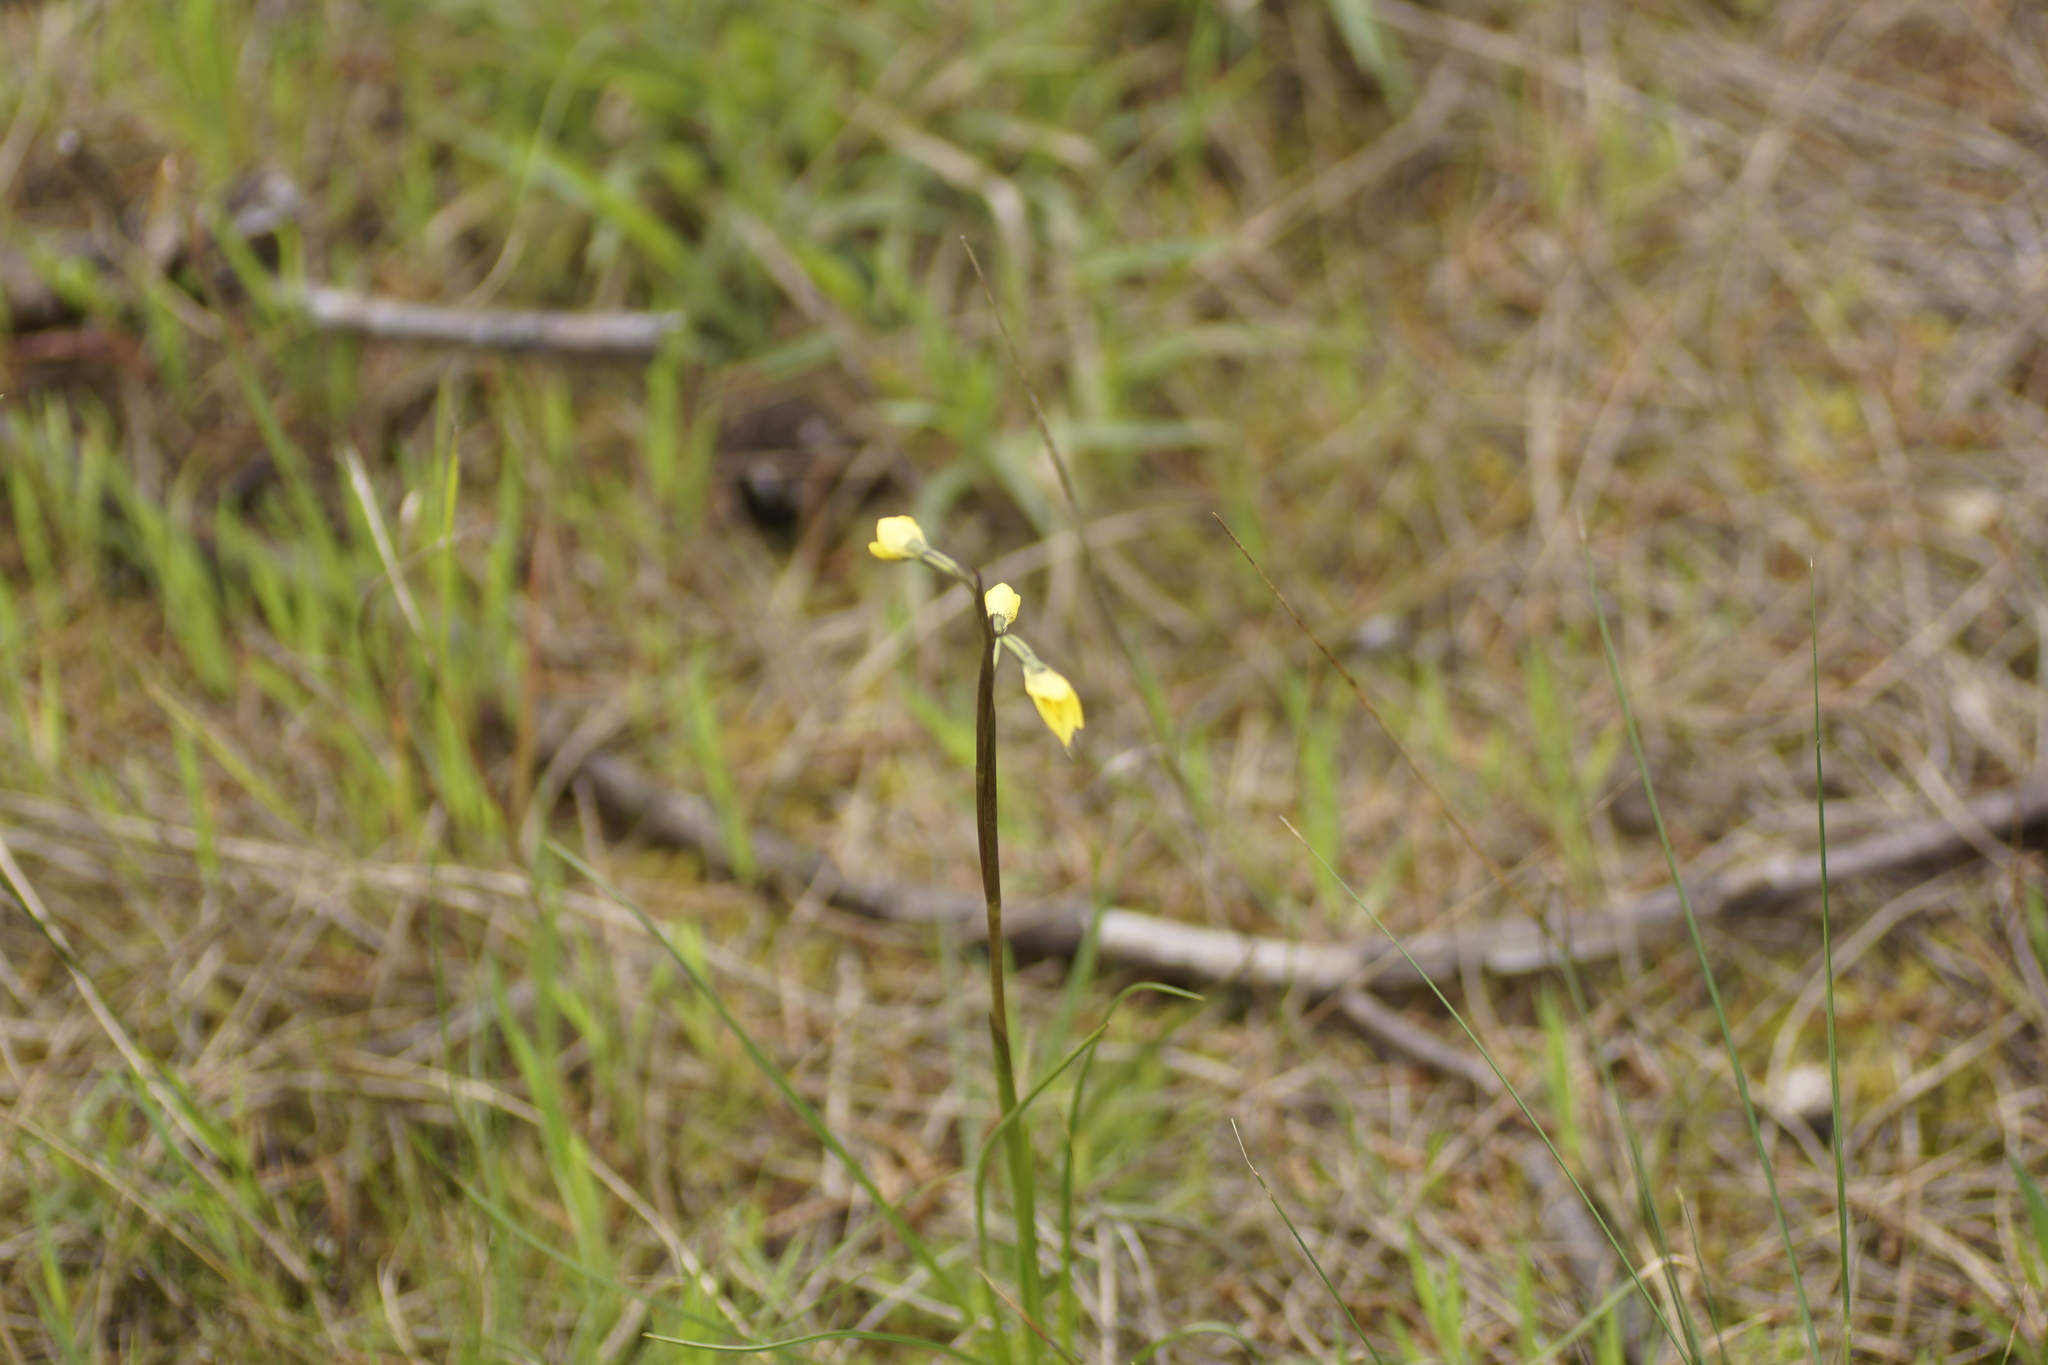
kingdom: Plantae
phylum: Tracheophyta
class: Liliopsida
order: Asparagales
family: Orchidaceae
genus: Diuris
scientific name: Diuris
